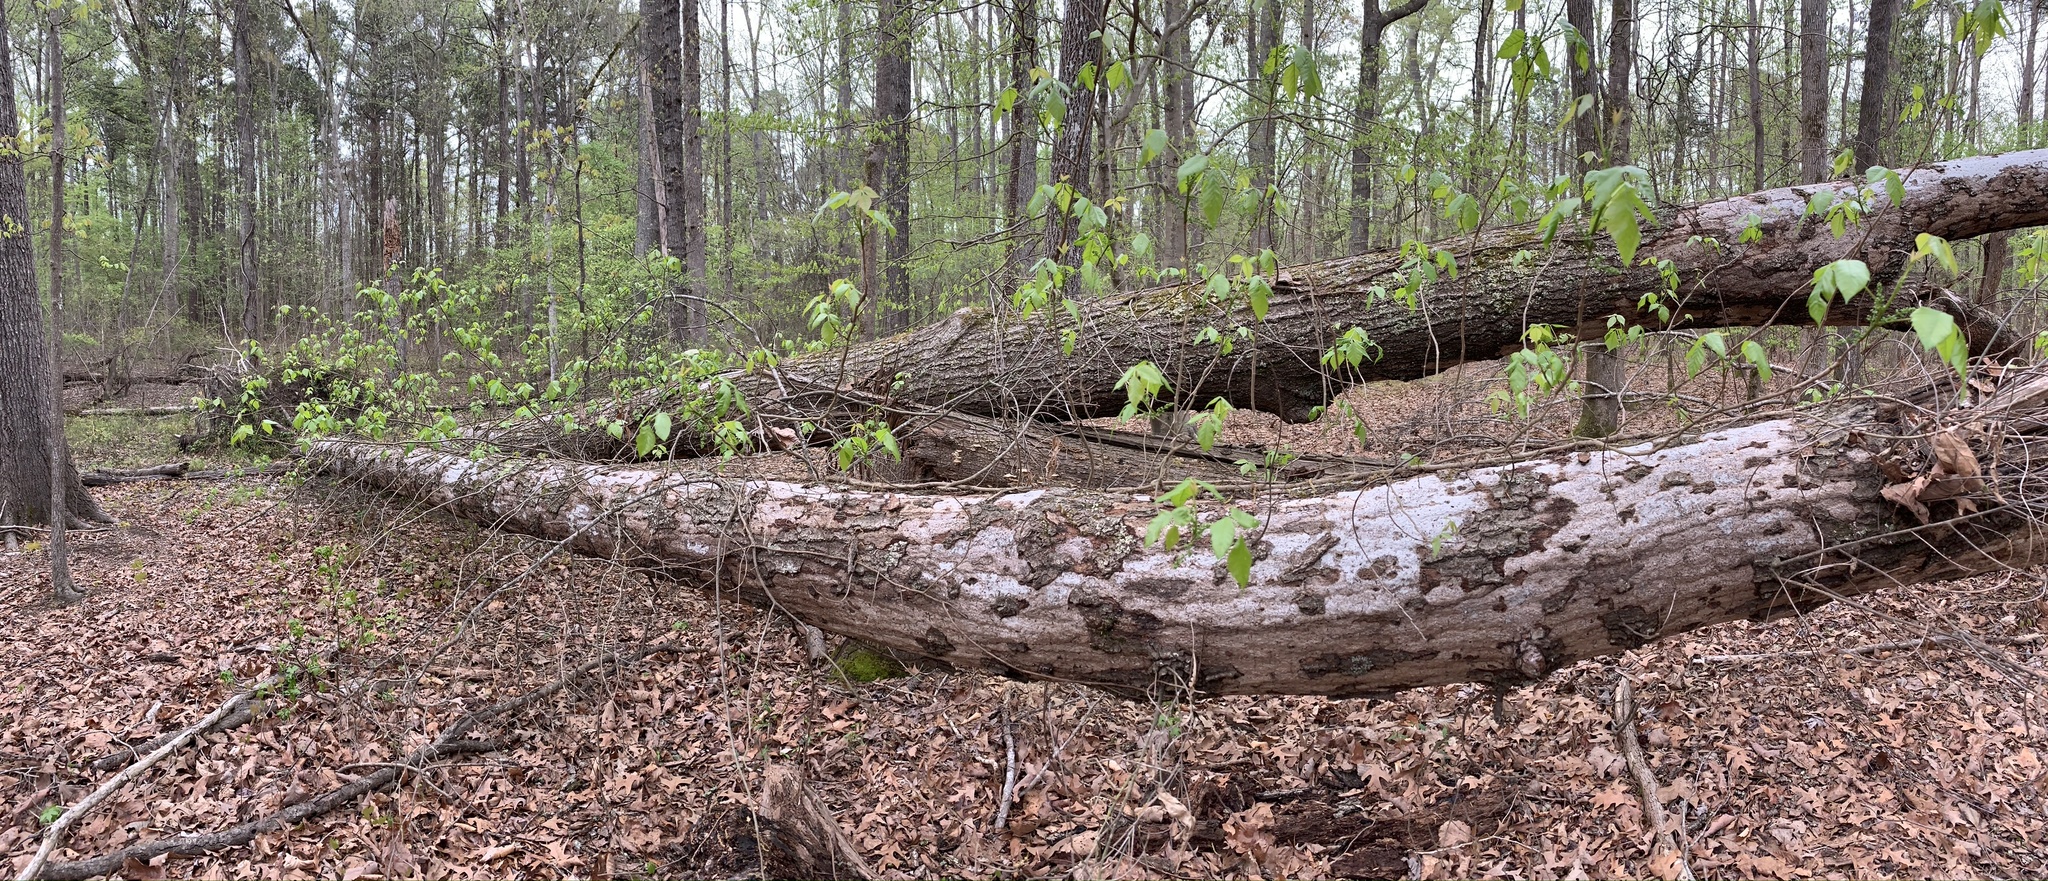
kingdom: Plantae
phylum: Tracheophyta
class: Magnoliopsida
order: Sapindales
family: Anacardiaceae
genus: Toxicodendron
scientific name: Toxicodendron radicans
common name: Poison ivy
